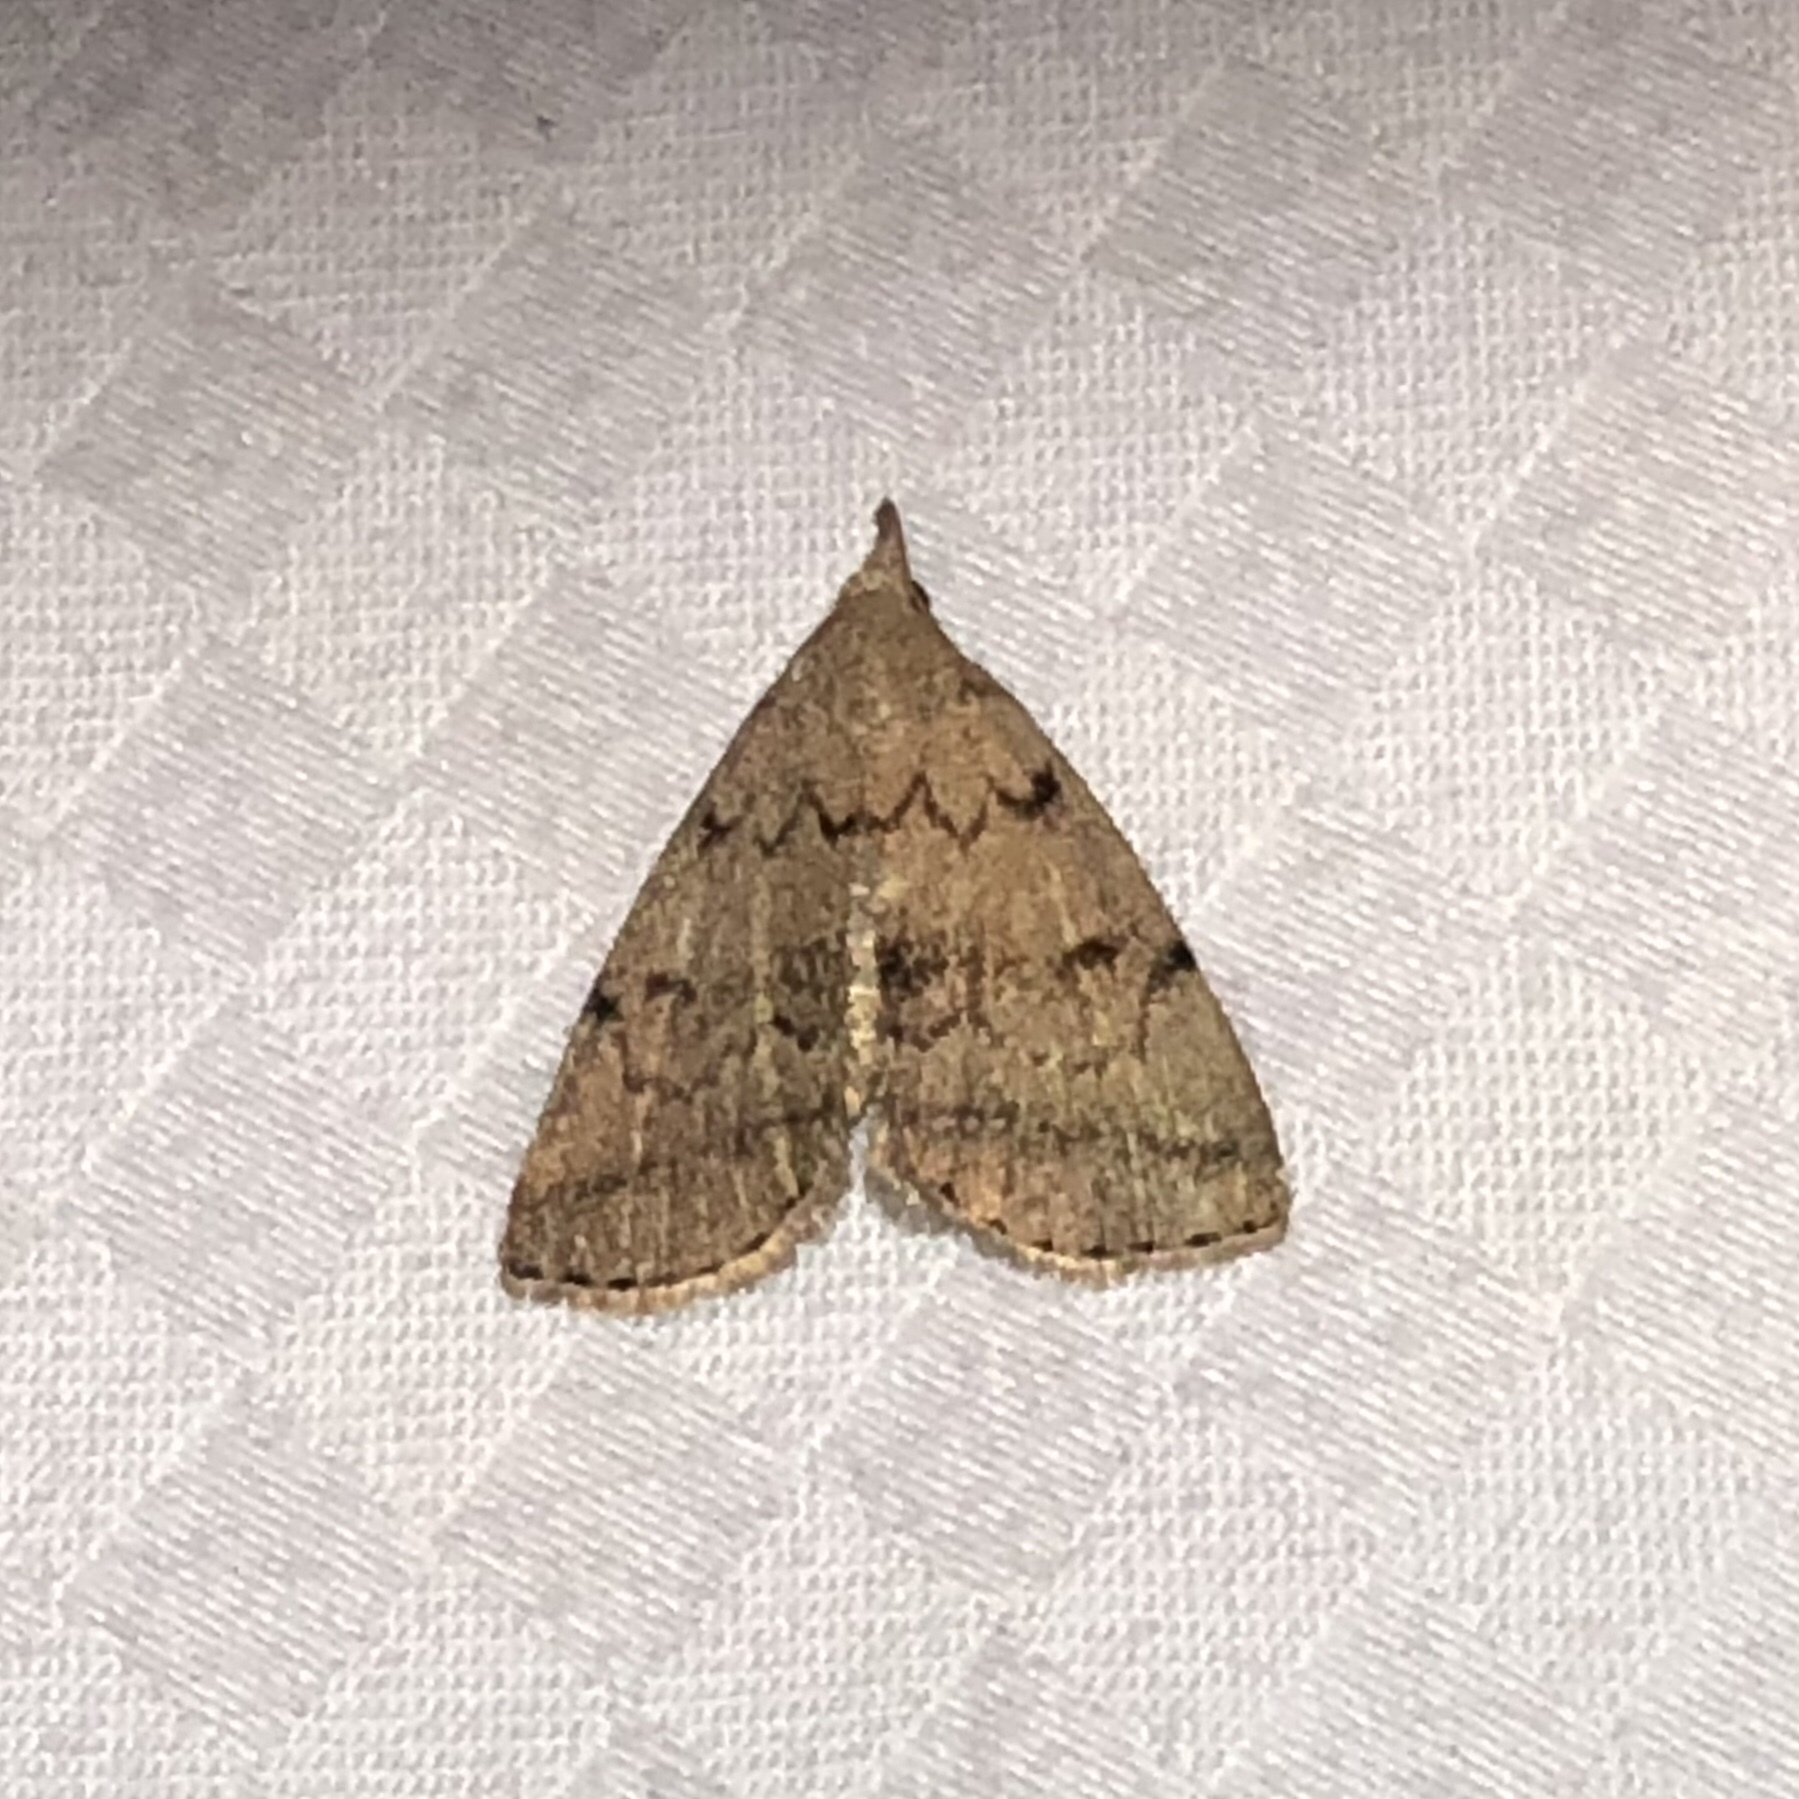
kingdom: Animalia
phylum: Arthropoda
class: Insecta
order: Lepidoptera
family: Erebidae
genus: Zanclognatha
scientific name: Zanclognatha dentata
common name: Toothed fan-foot
